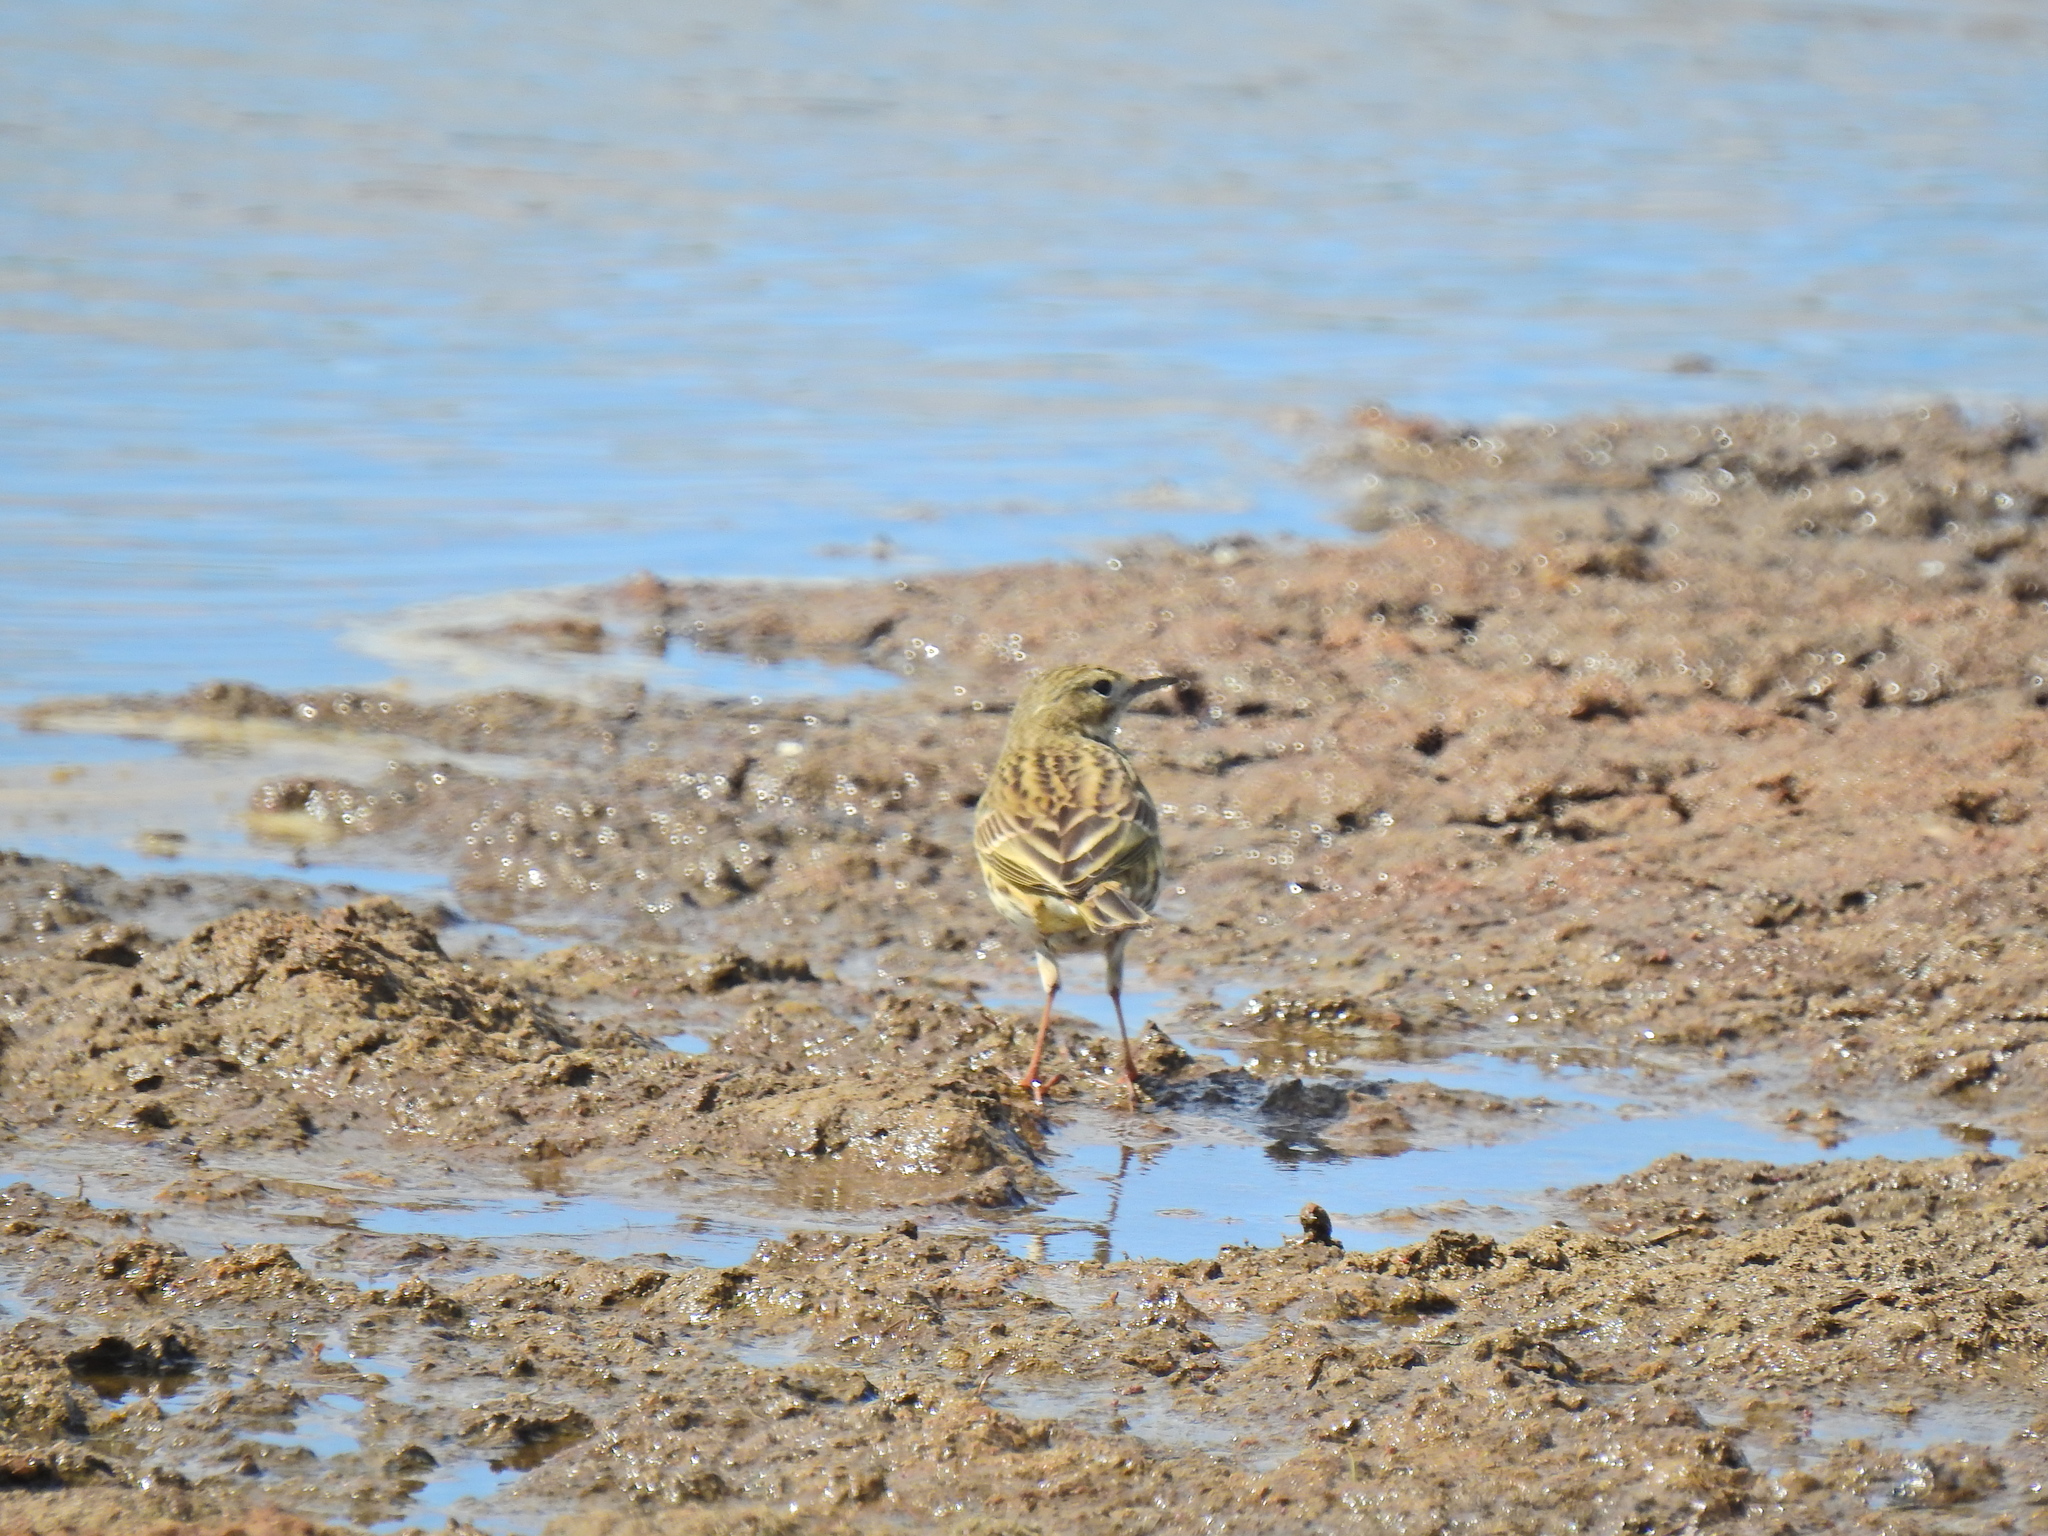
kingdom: Animalia
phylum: Chordata
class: Aves
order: Passeriformes
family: Motacillidae
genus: Anthus
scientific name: Anthus pratensis
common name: Meadow pipit
